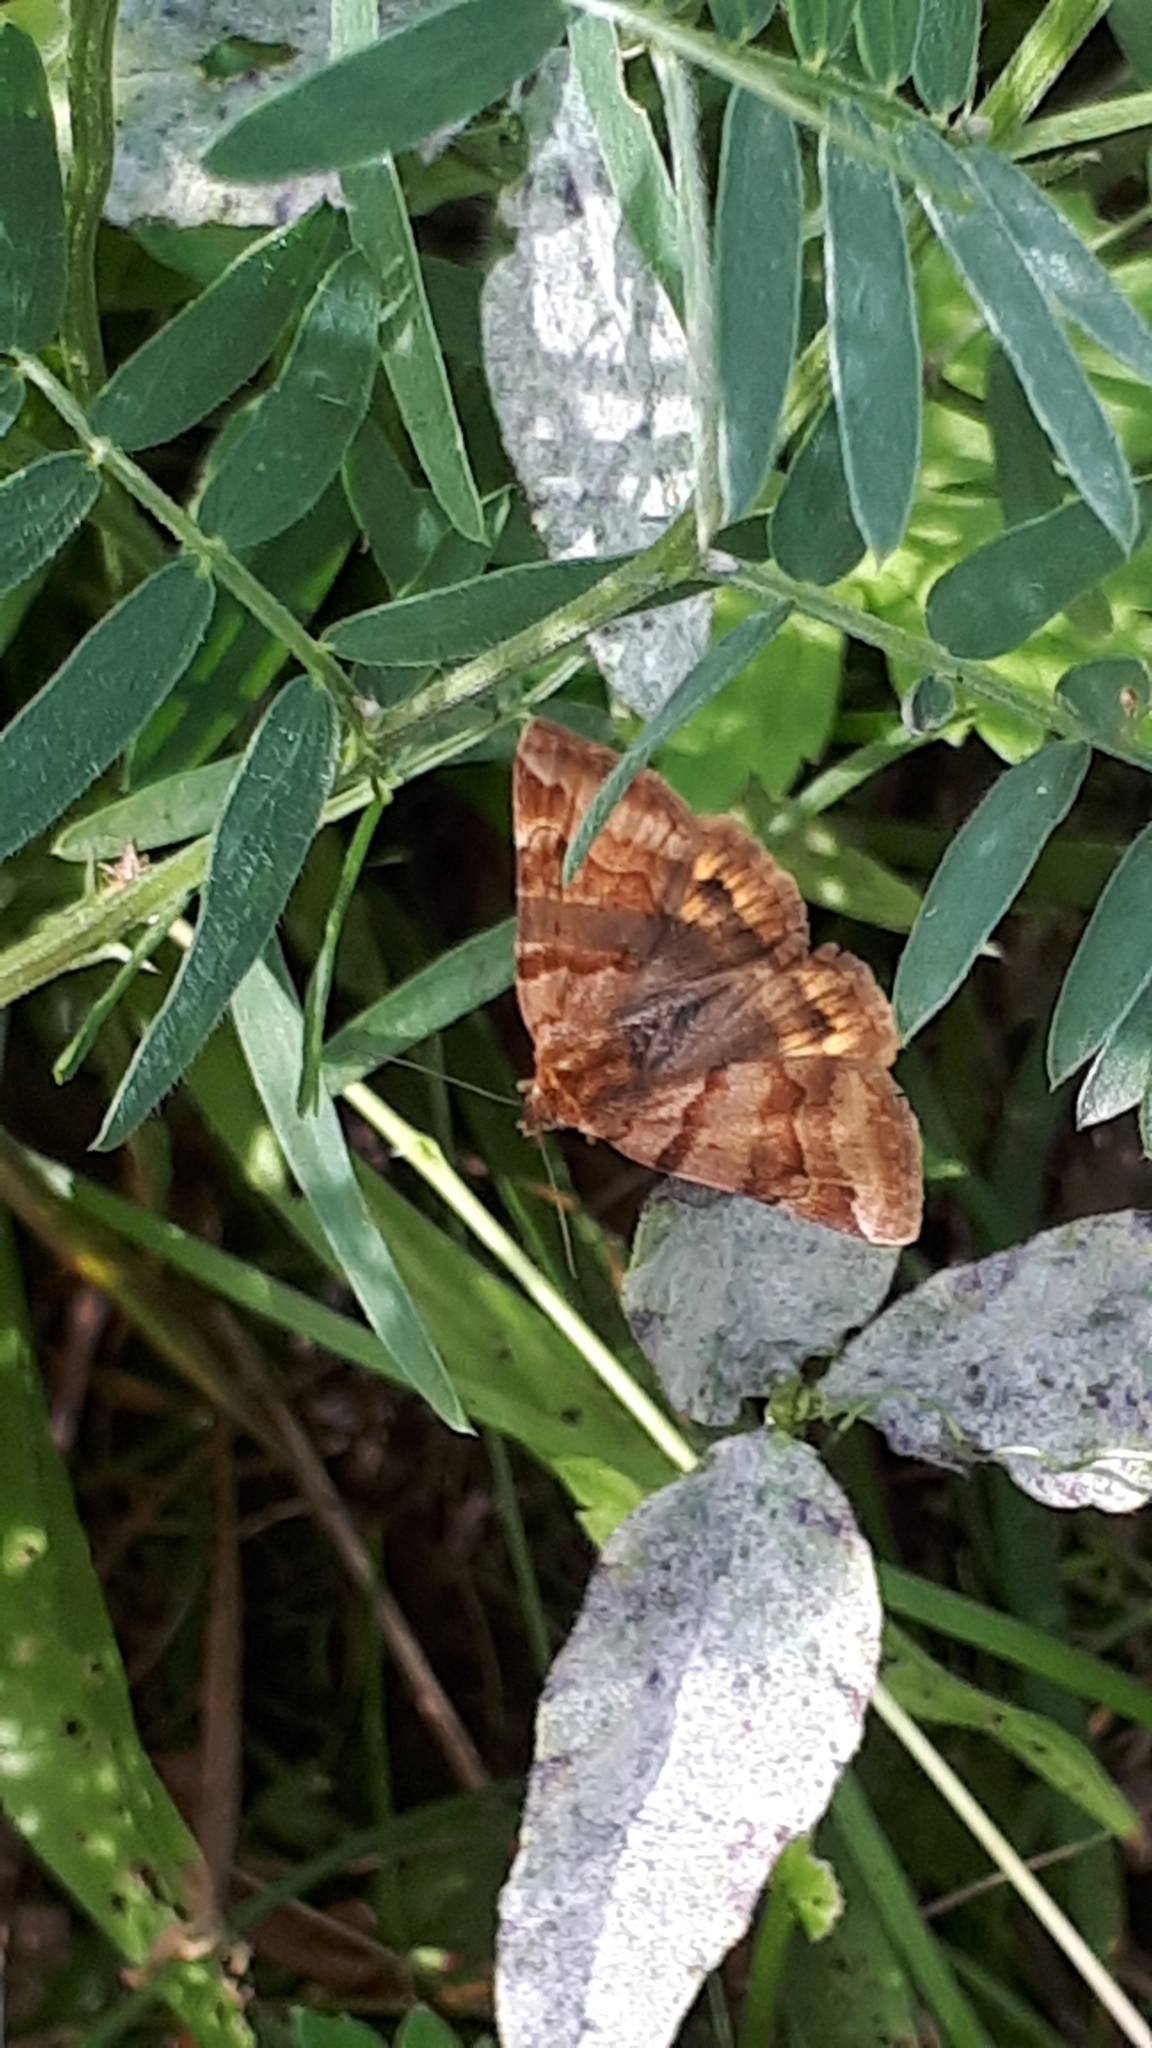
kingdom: Animalia
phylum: Arthropoda
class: Insecta
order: Lepidoptera
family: Erebidae
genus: Euclidia
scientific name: Euclidia glyphica
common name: Burnet companion
